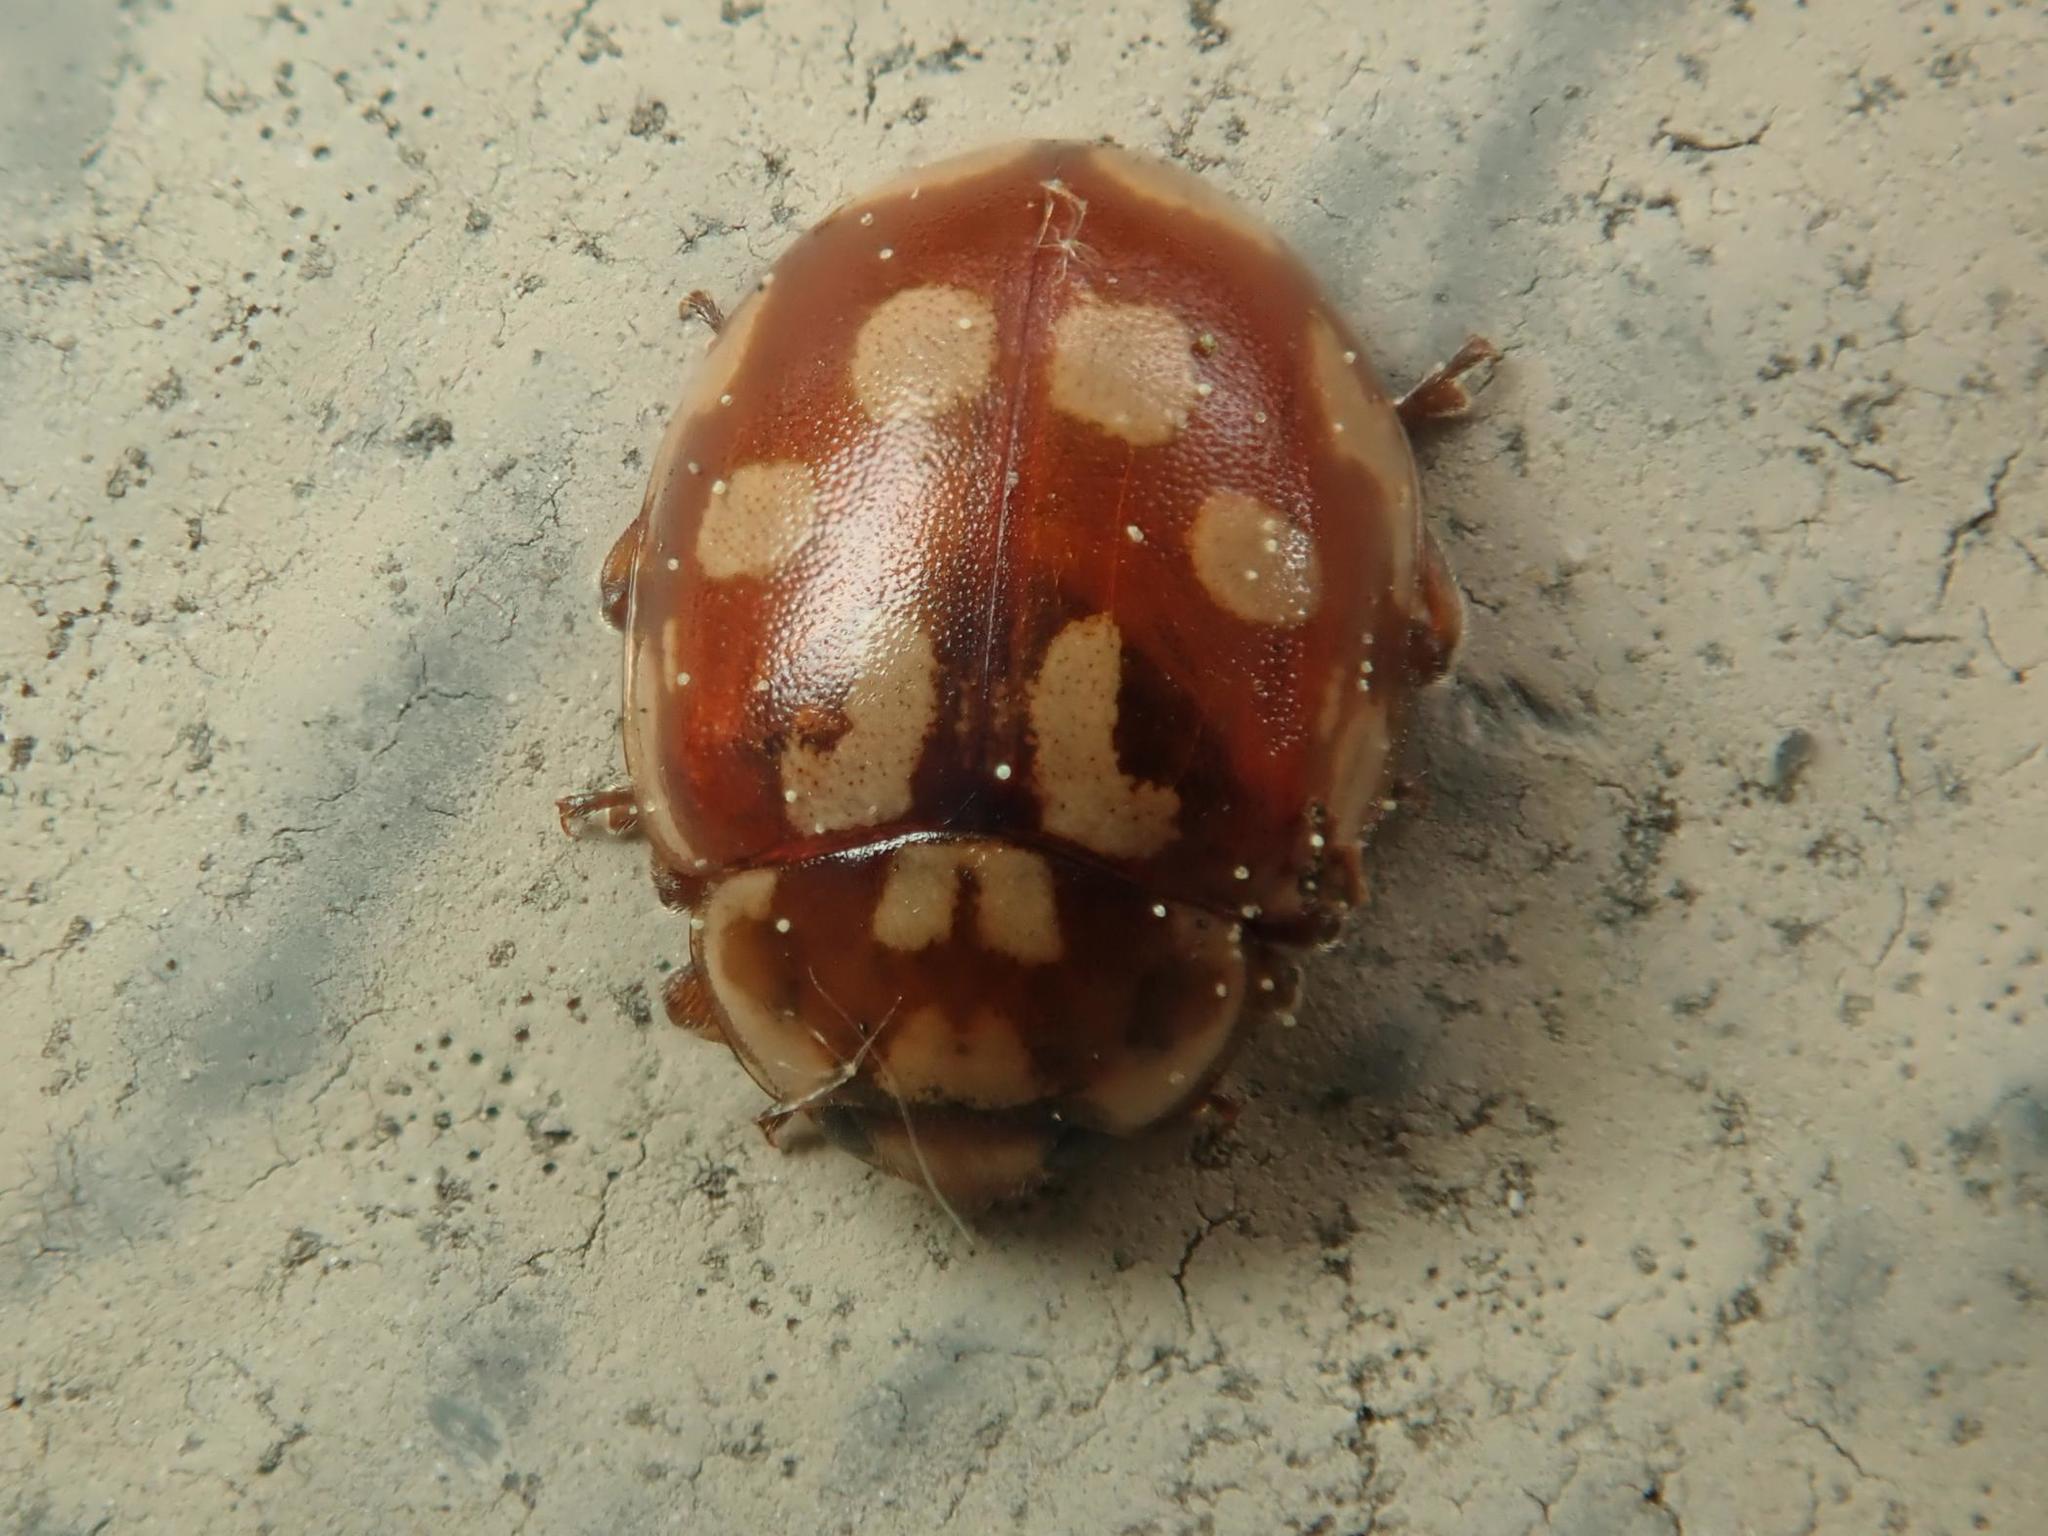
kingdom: Animalia
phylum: Arthropoda
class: Insecta
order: Coleoptera
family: Coccinellidae
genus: Myrrha
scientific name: Myrrha octodecimguttata
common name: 18-spot ladybird
